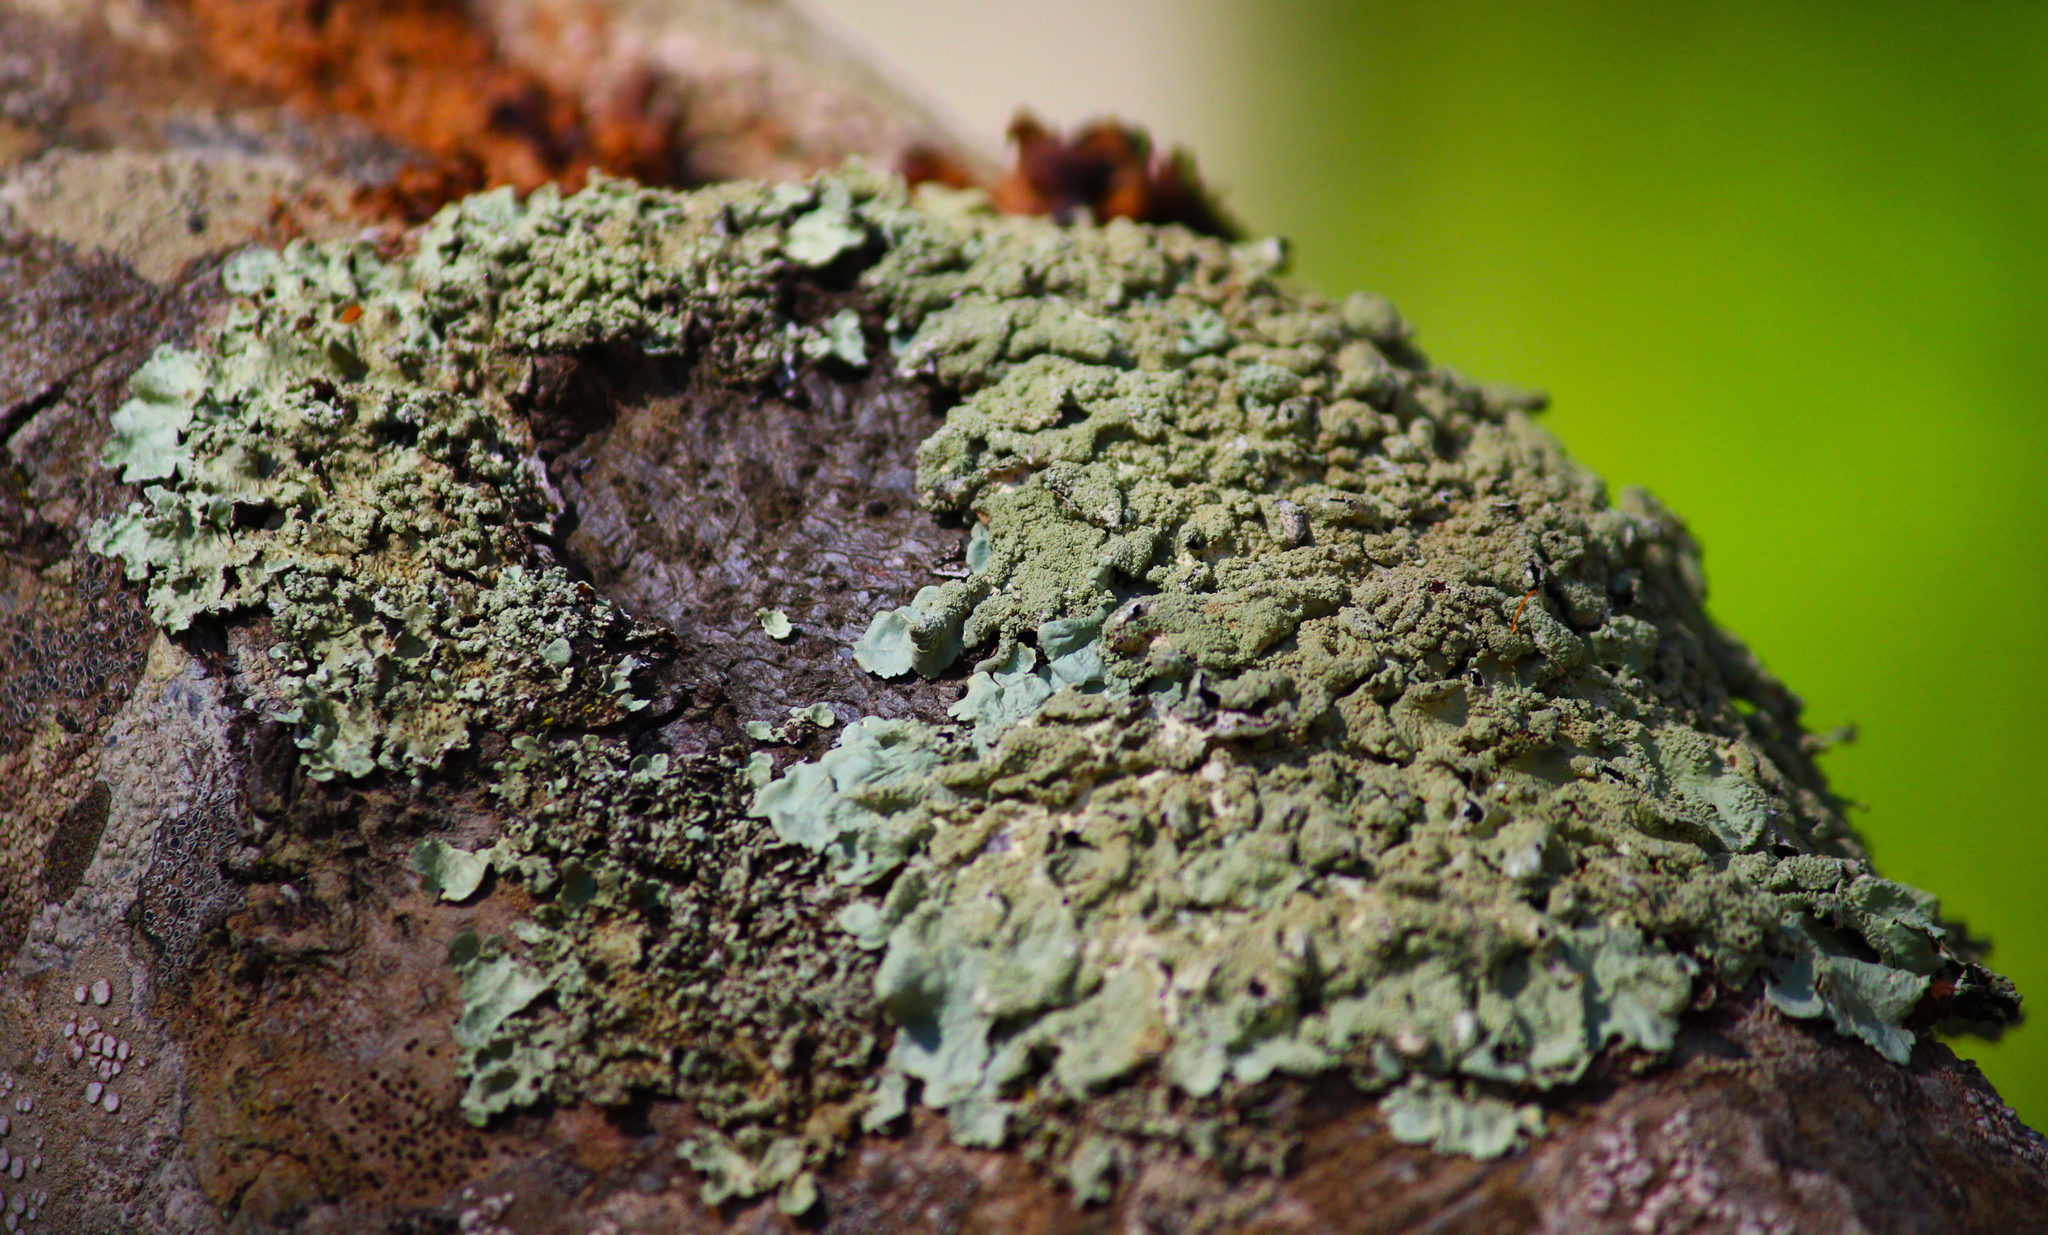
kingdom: Fungi
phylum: Ascomycota
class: Lecanoromycetes
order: Lecanorales
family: Parmeliaceae
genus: Flavoparmelia
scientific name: Flavoparmelia caperata
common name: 40-mile per hour lichen
